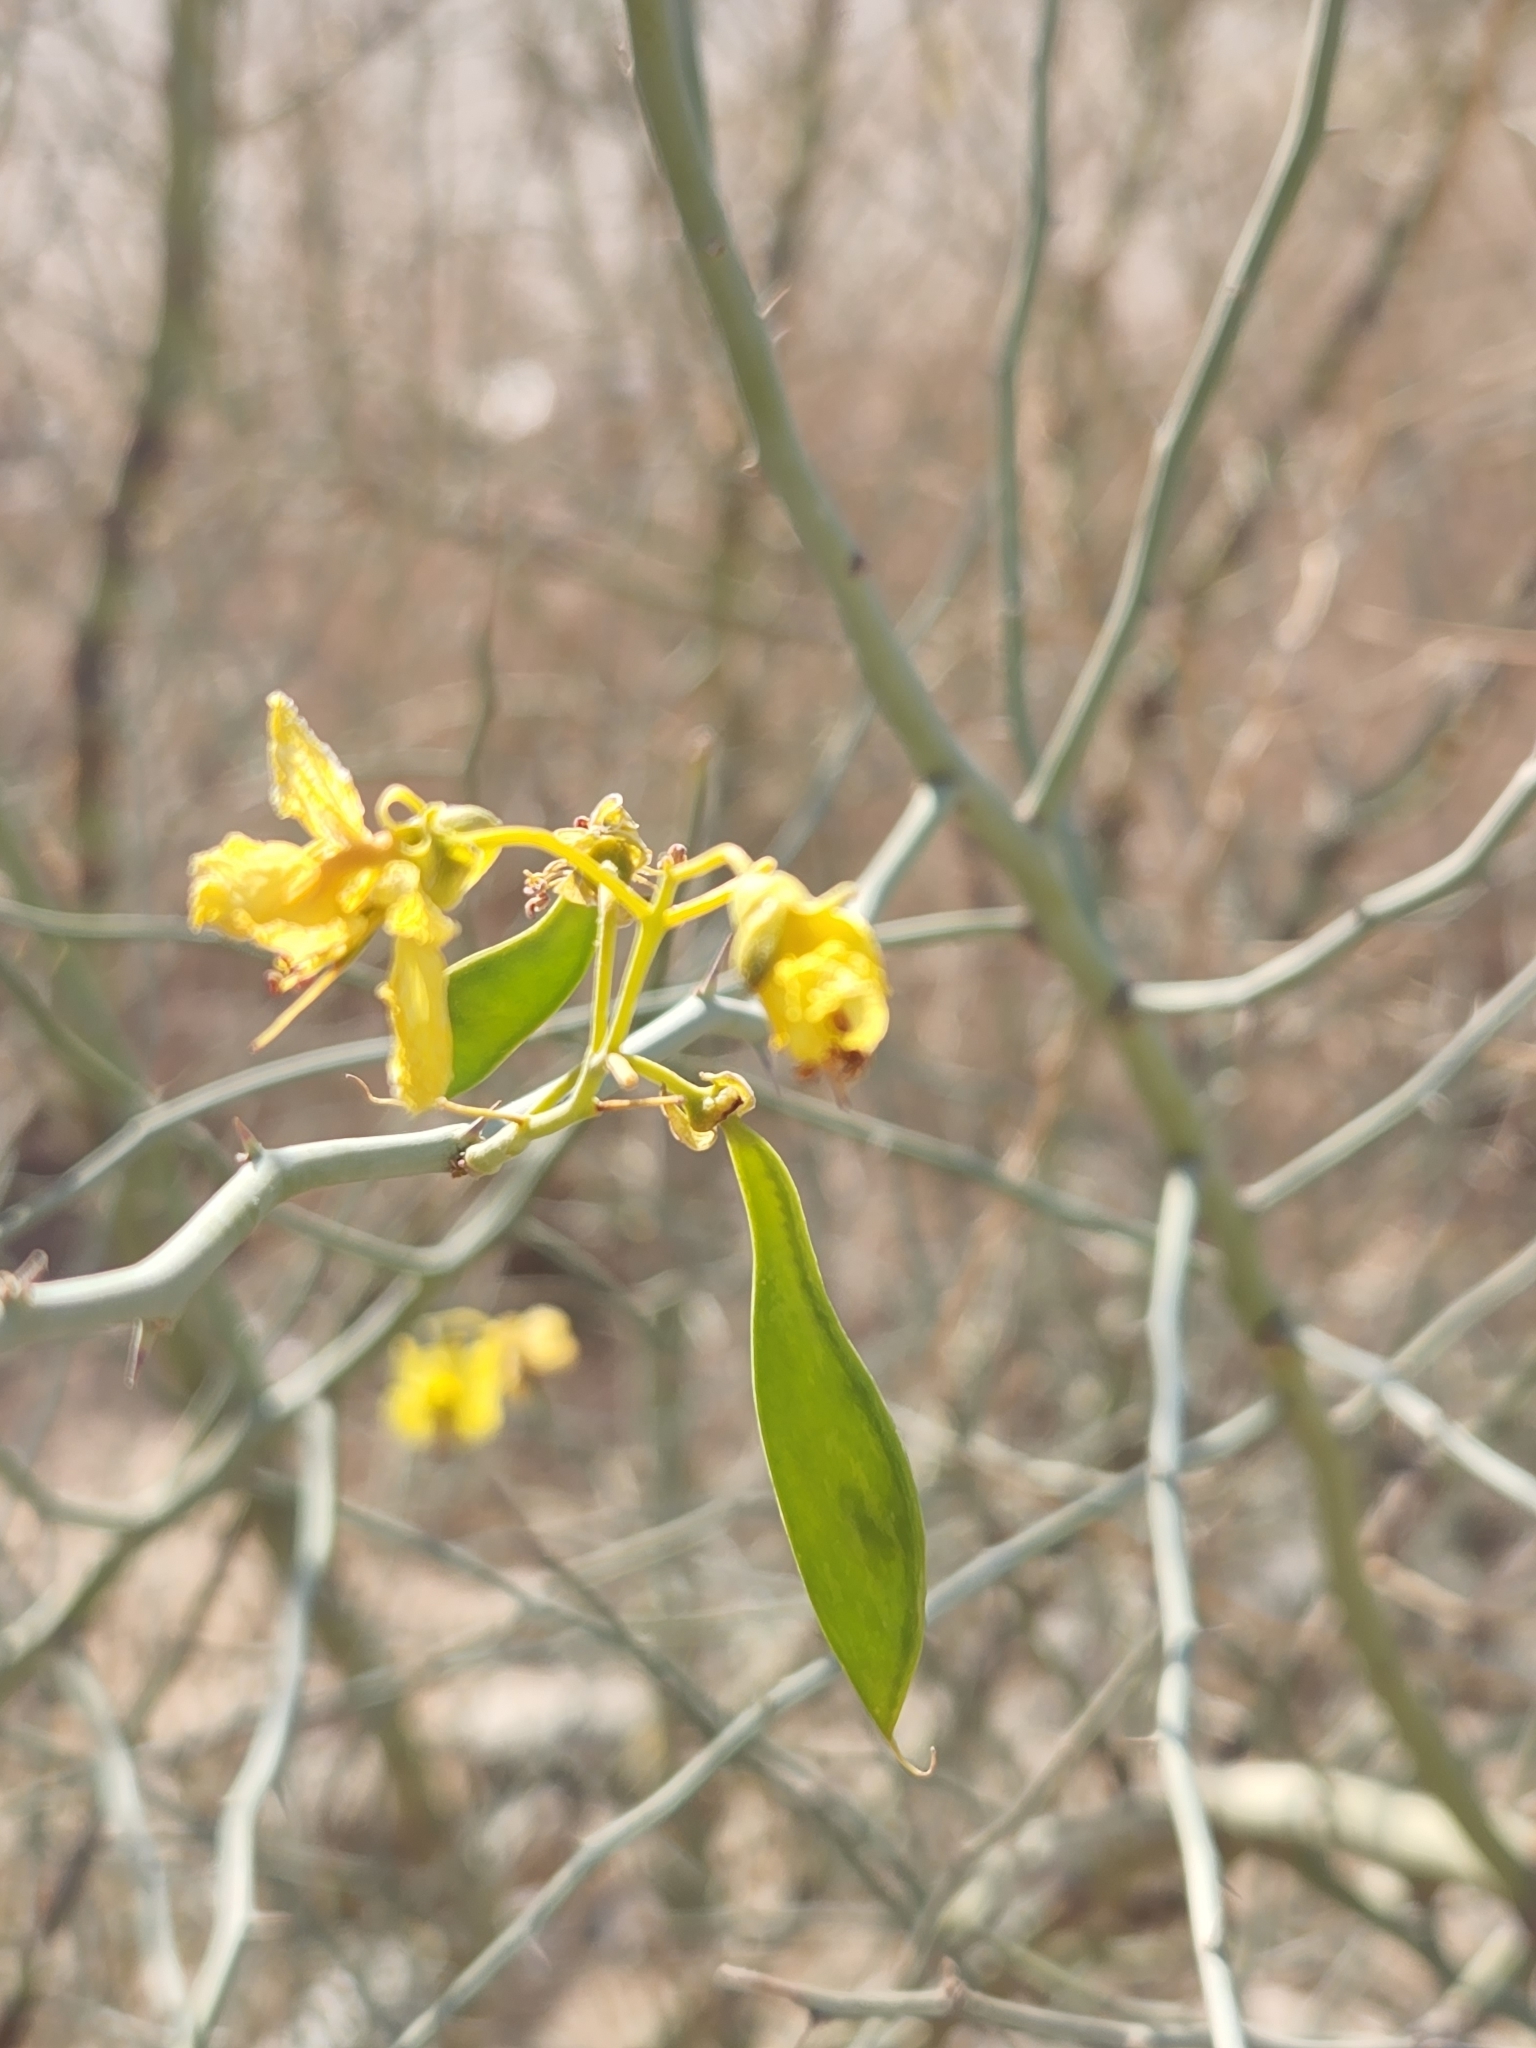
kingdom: Plantae
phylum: Tracheophyta
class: Magnoliopsida
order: Fabales
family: Fabaceae
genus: Parkinsonia
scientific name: Parkinsonia florida
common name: Blue paloverde
